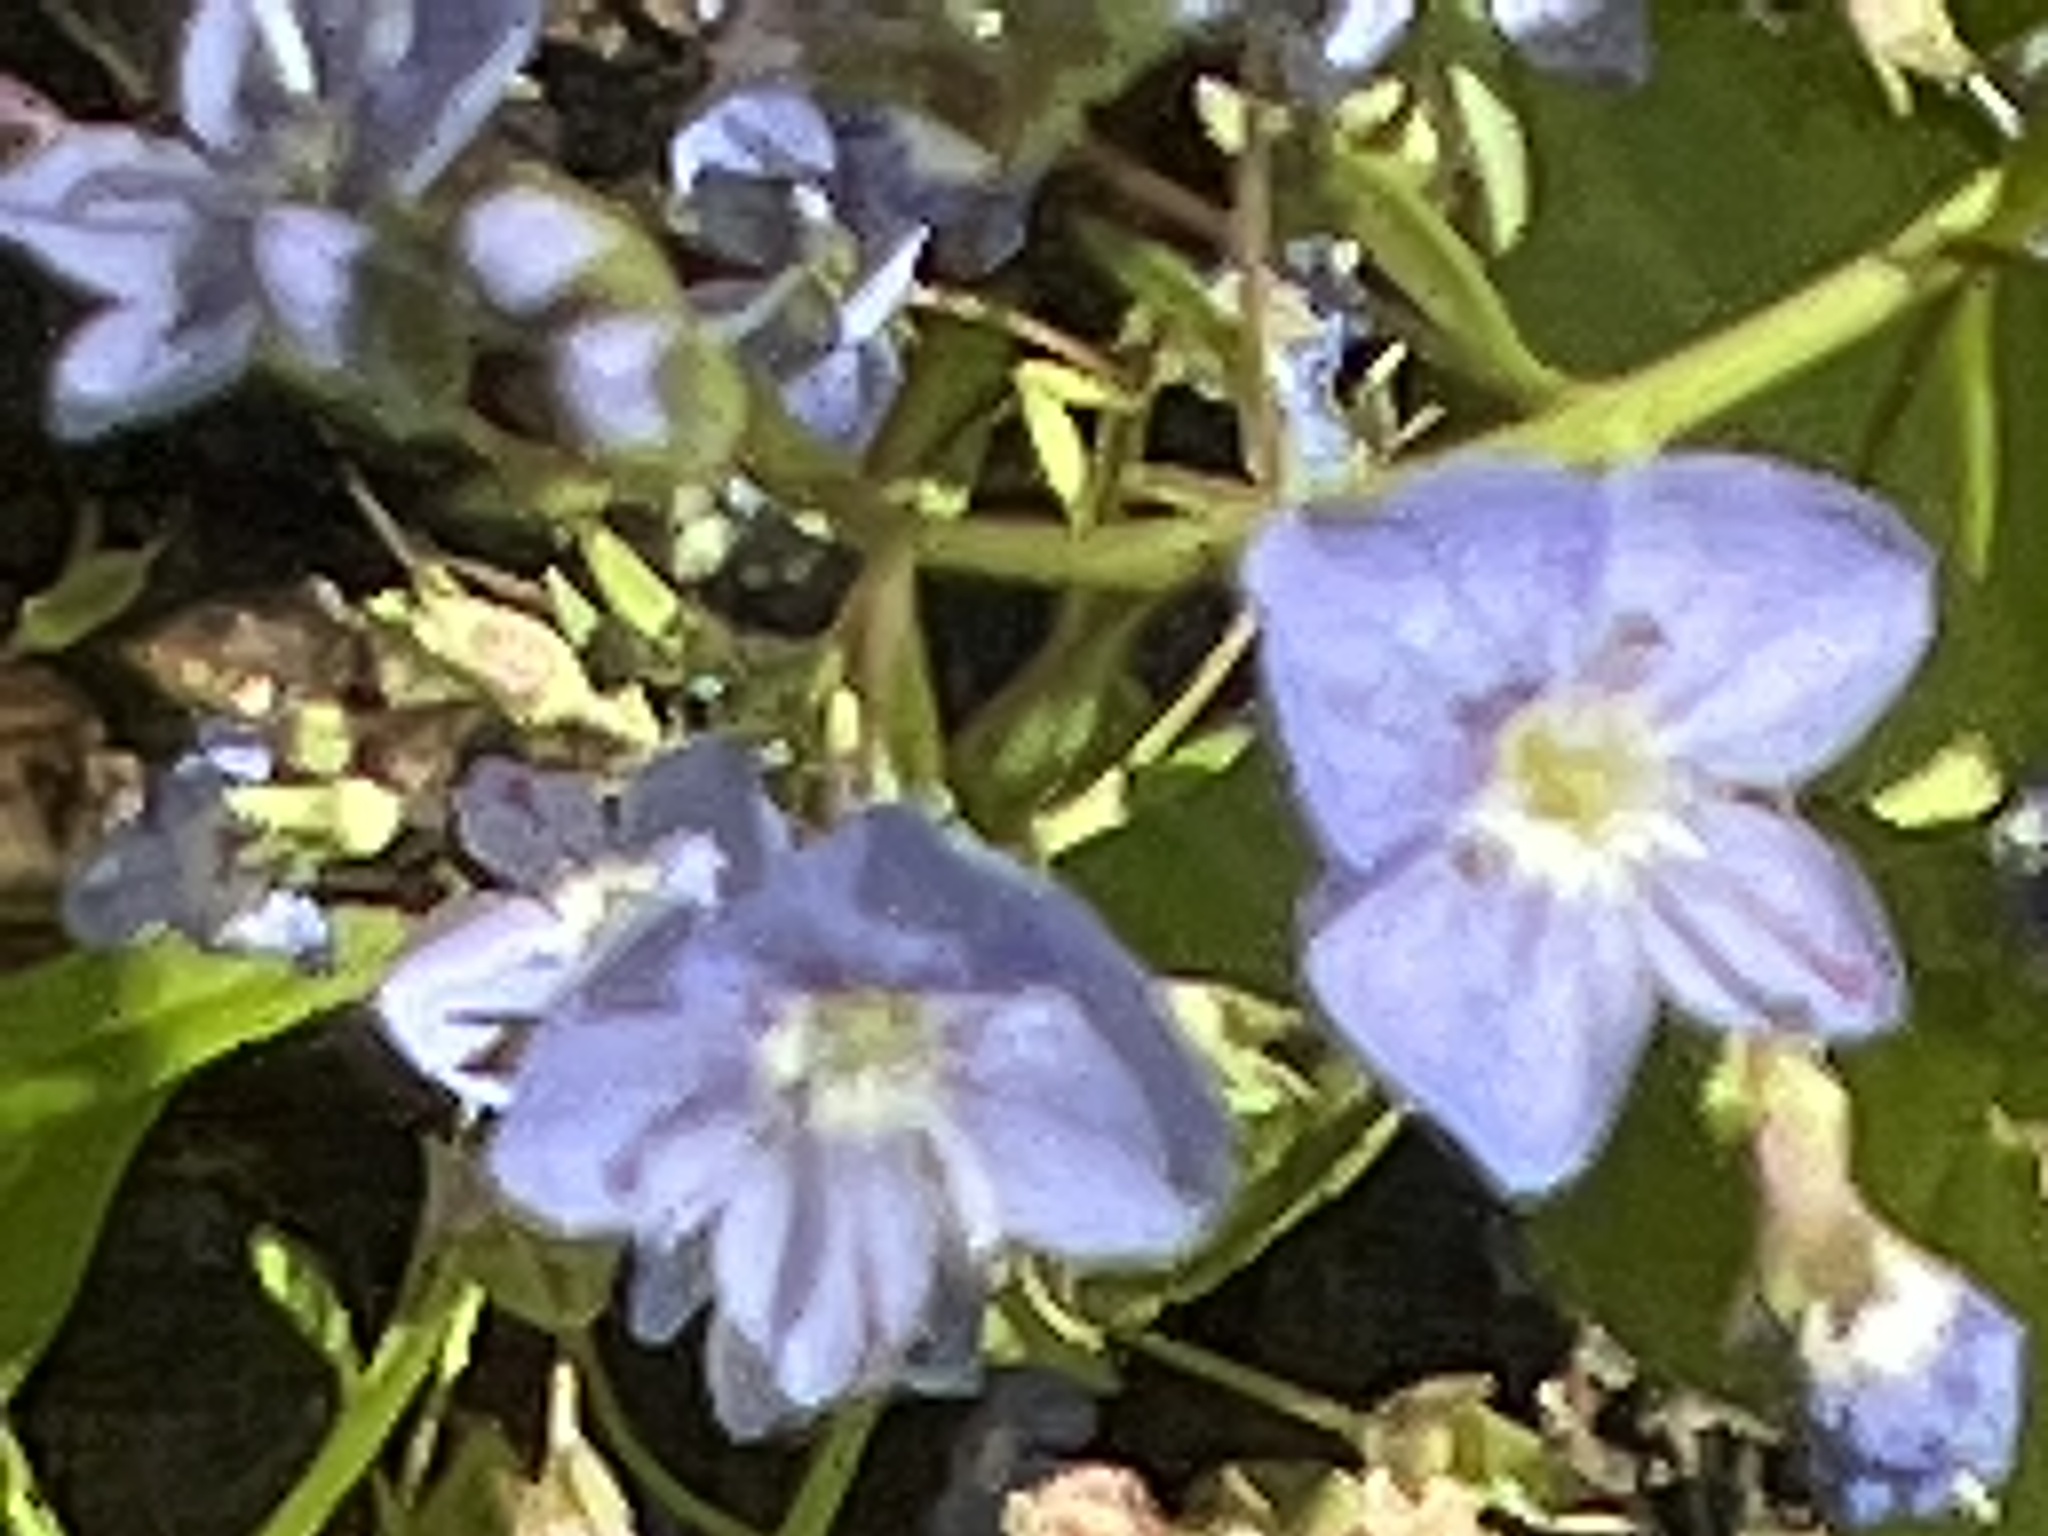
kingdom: Plantae
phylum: Tracheophyta
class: Magnoliopsida
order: Lamiales
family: Plantaginaceae
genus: Veronica
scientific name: Veronica americana
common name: American brooklime
